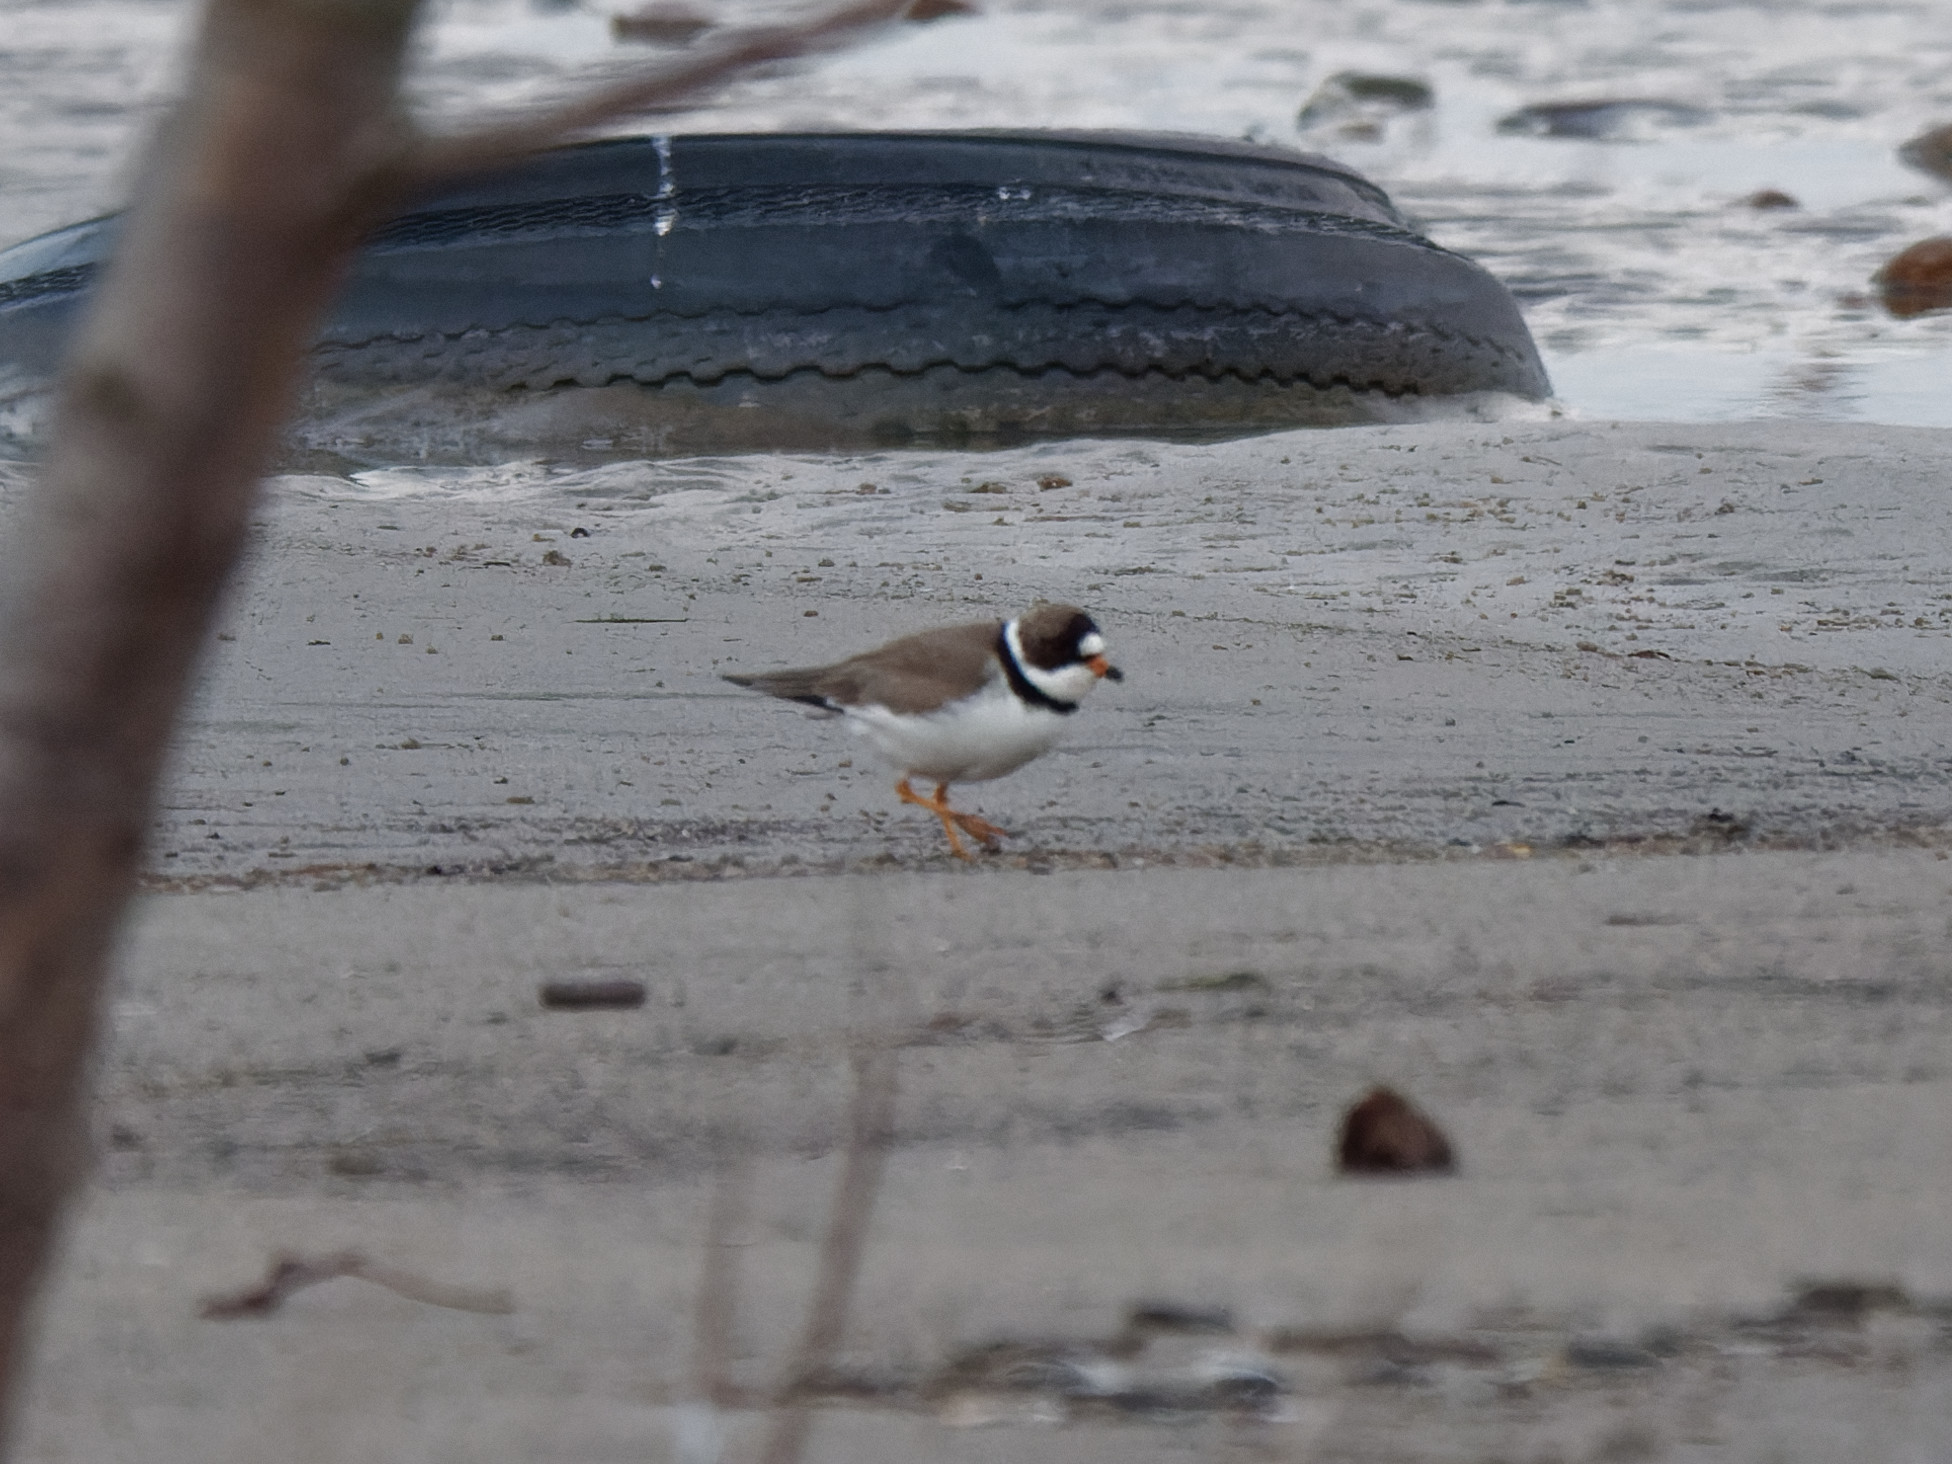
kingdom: Animalia
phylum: Chordata
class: Aves
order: Charadriiformes
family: Charadriidae
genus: Charadrius
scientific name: Charadrius semipalmatus
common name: Semipalmated plover
